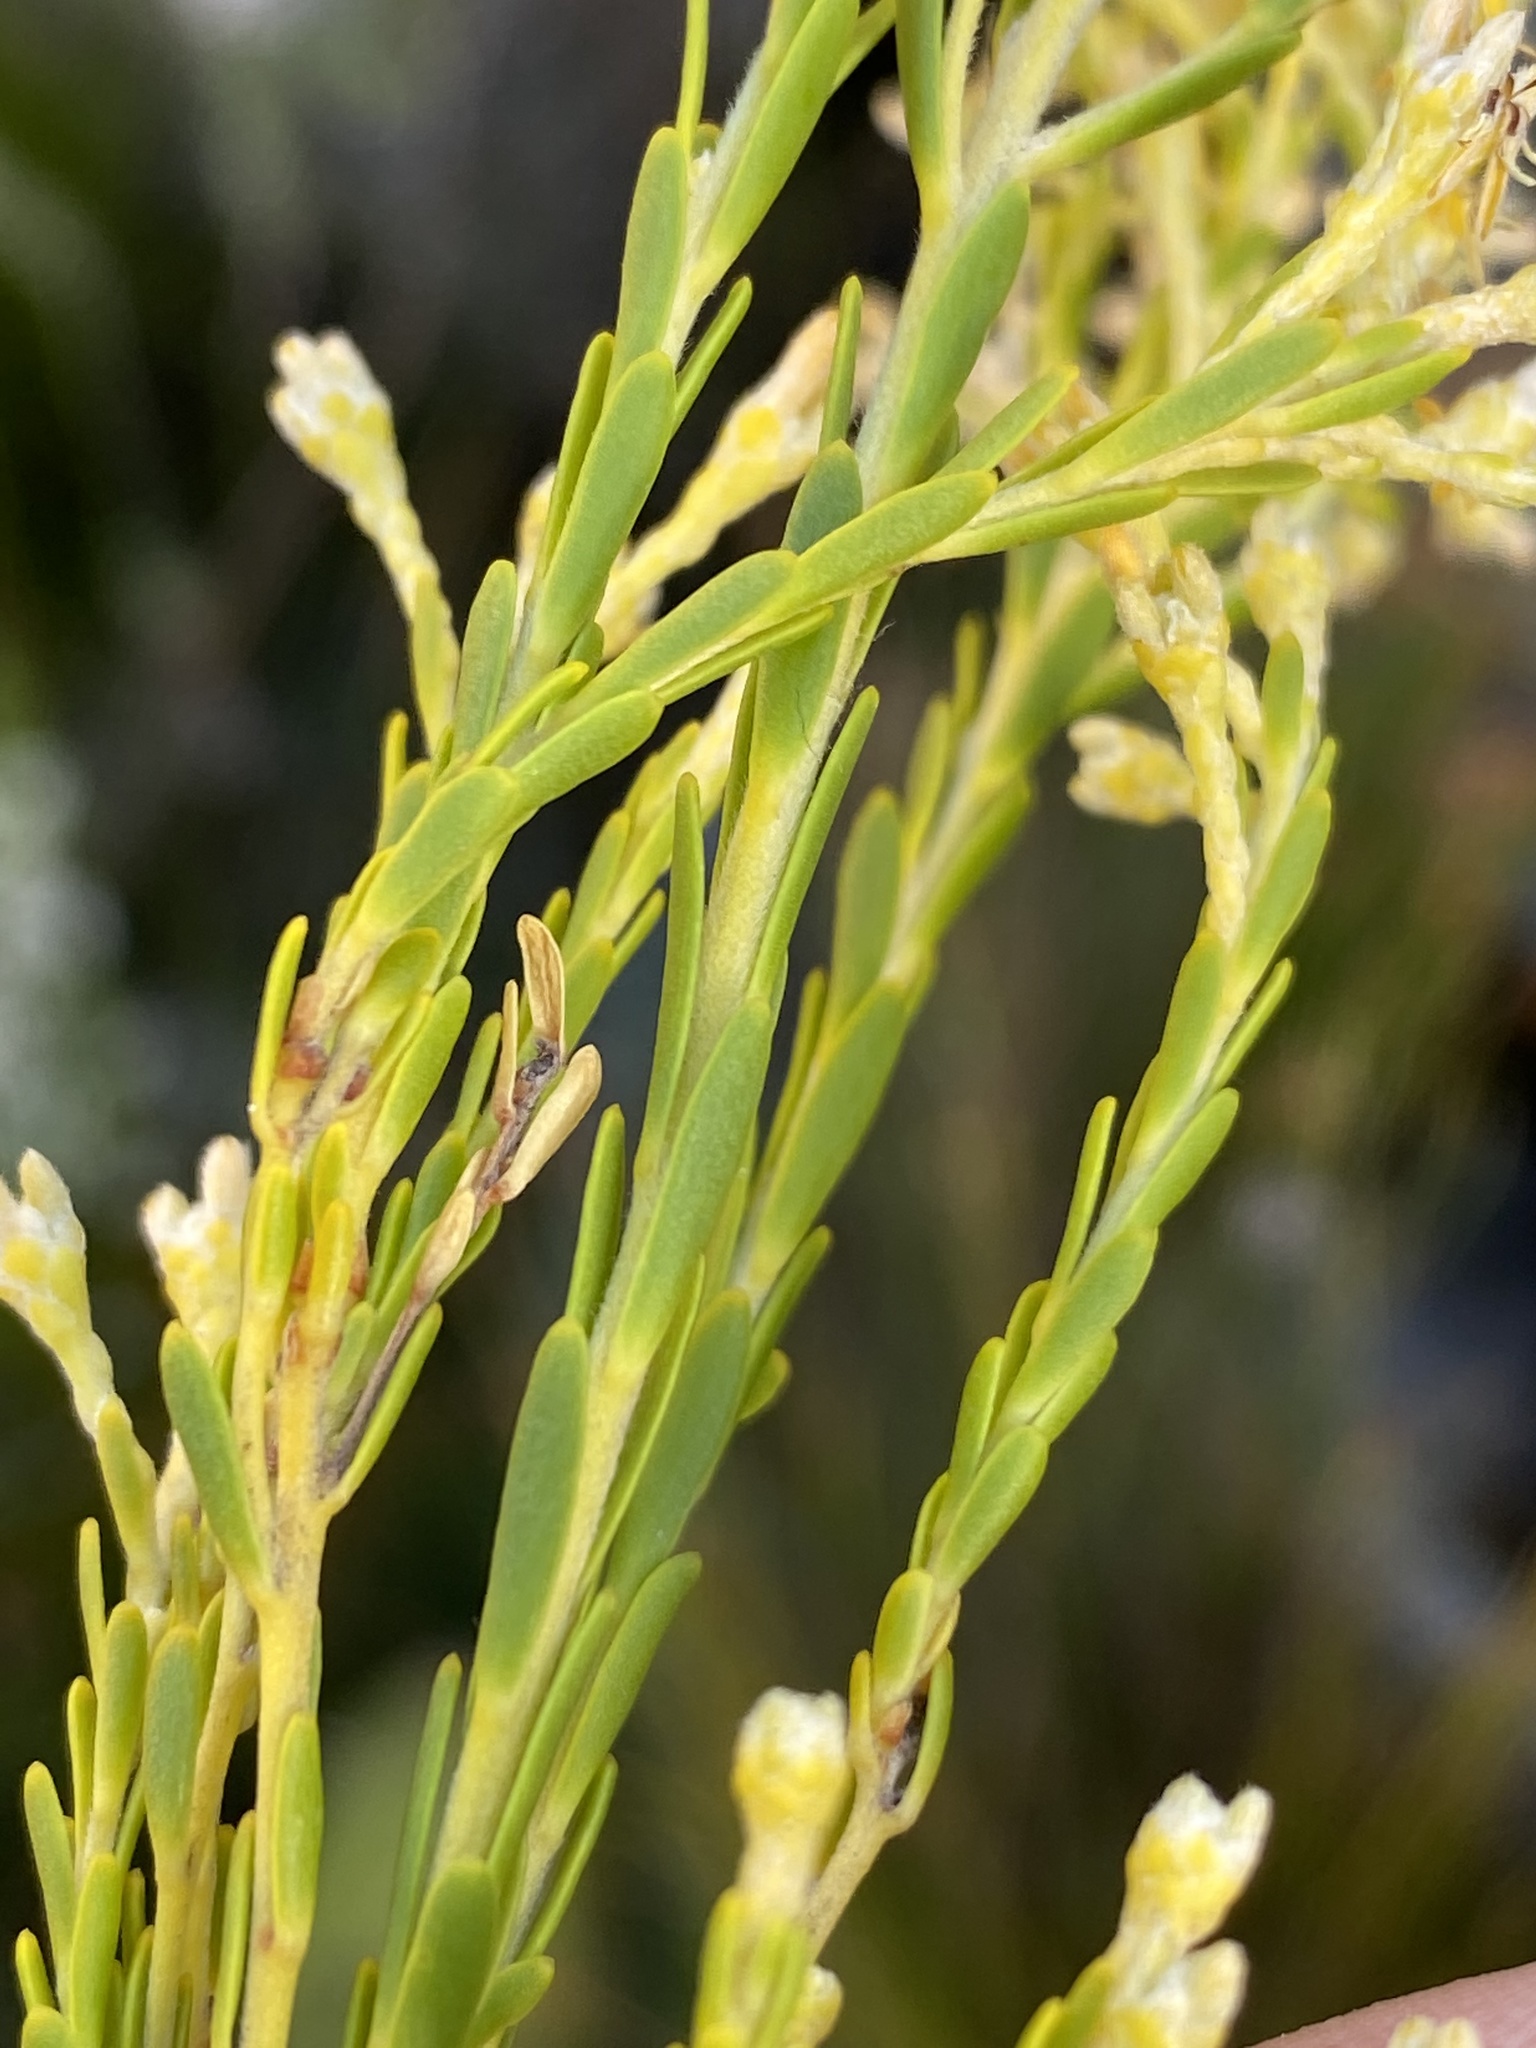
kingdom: Plantae
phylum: Tracheophyta
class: Magnoliopsida
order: Proteales
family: Proteaceae
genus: Leucadendron
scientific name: Leucadendron ericifolium
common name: Erica-leaved conebush
